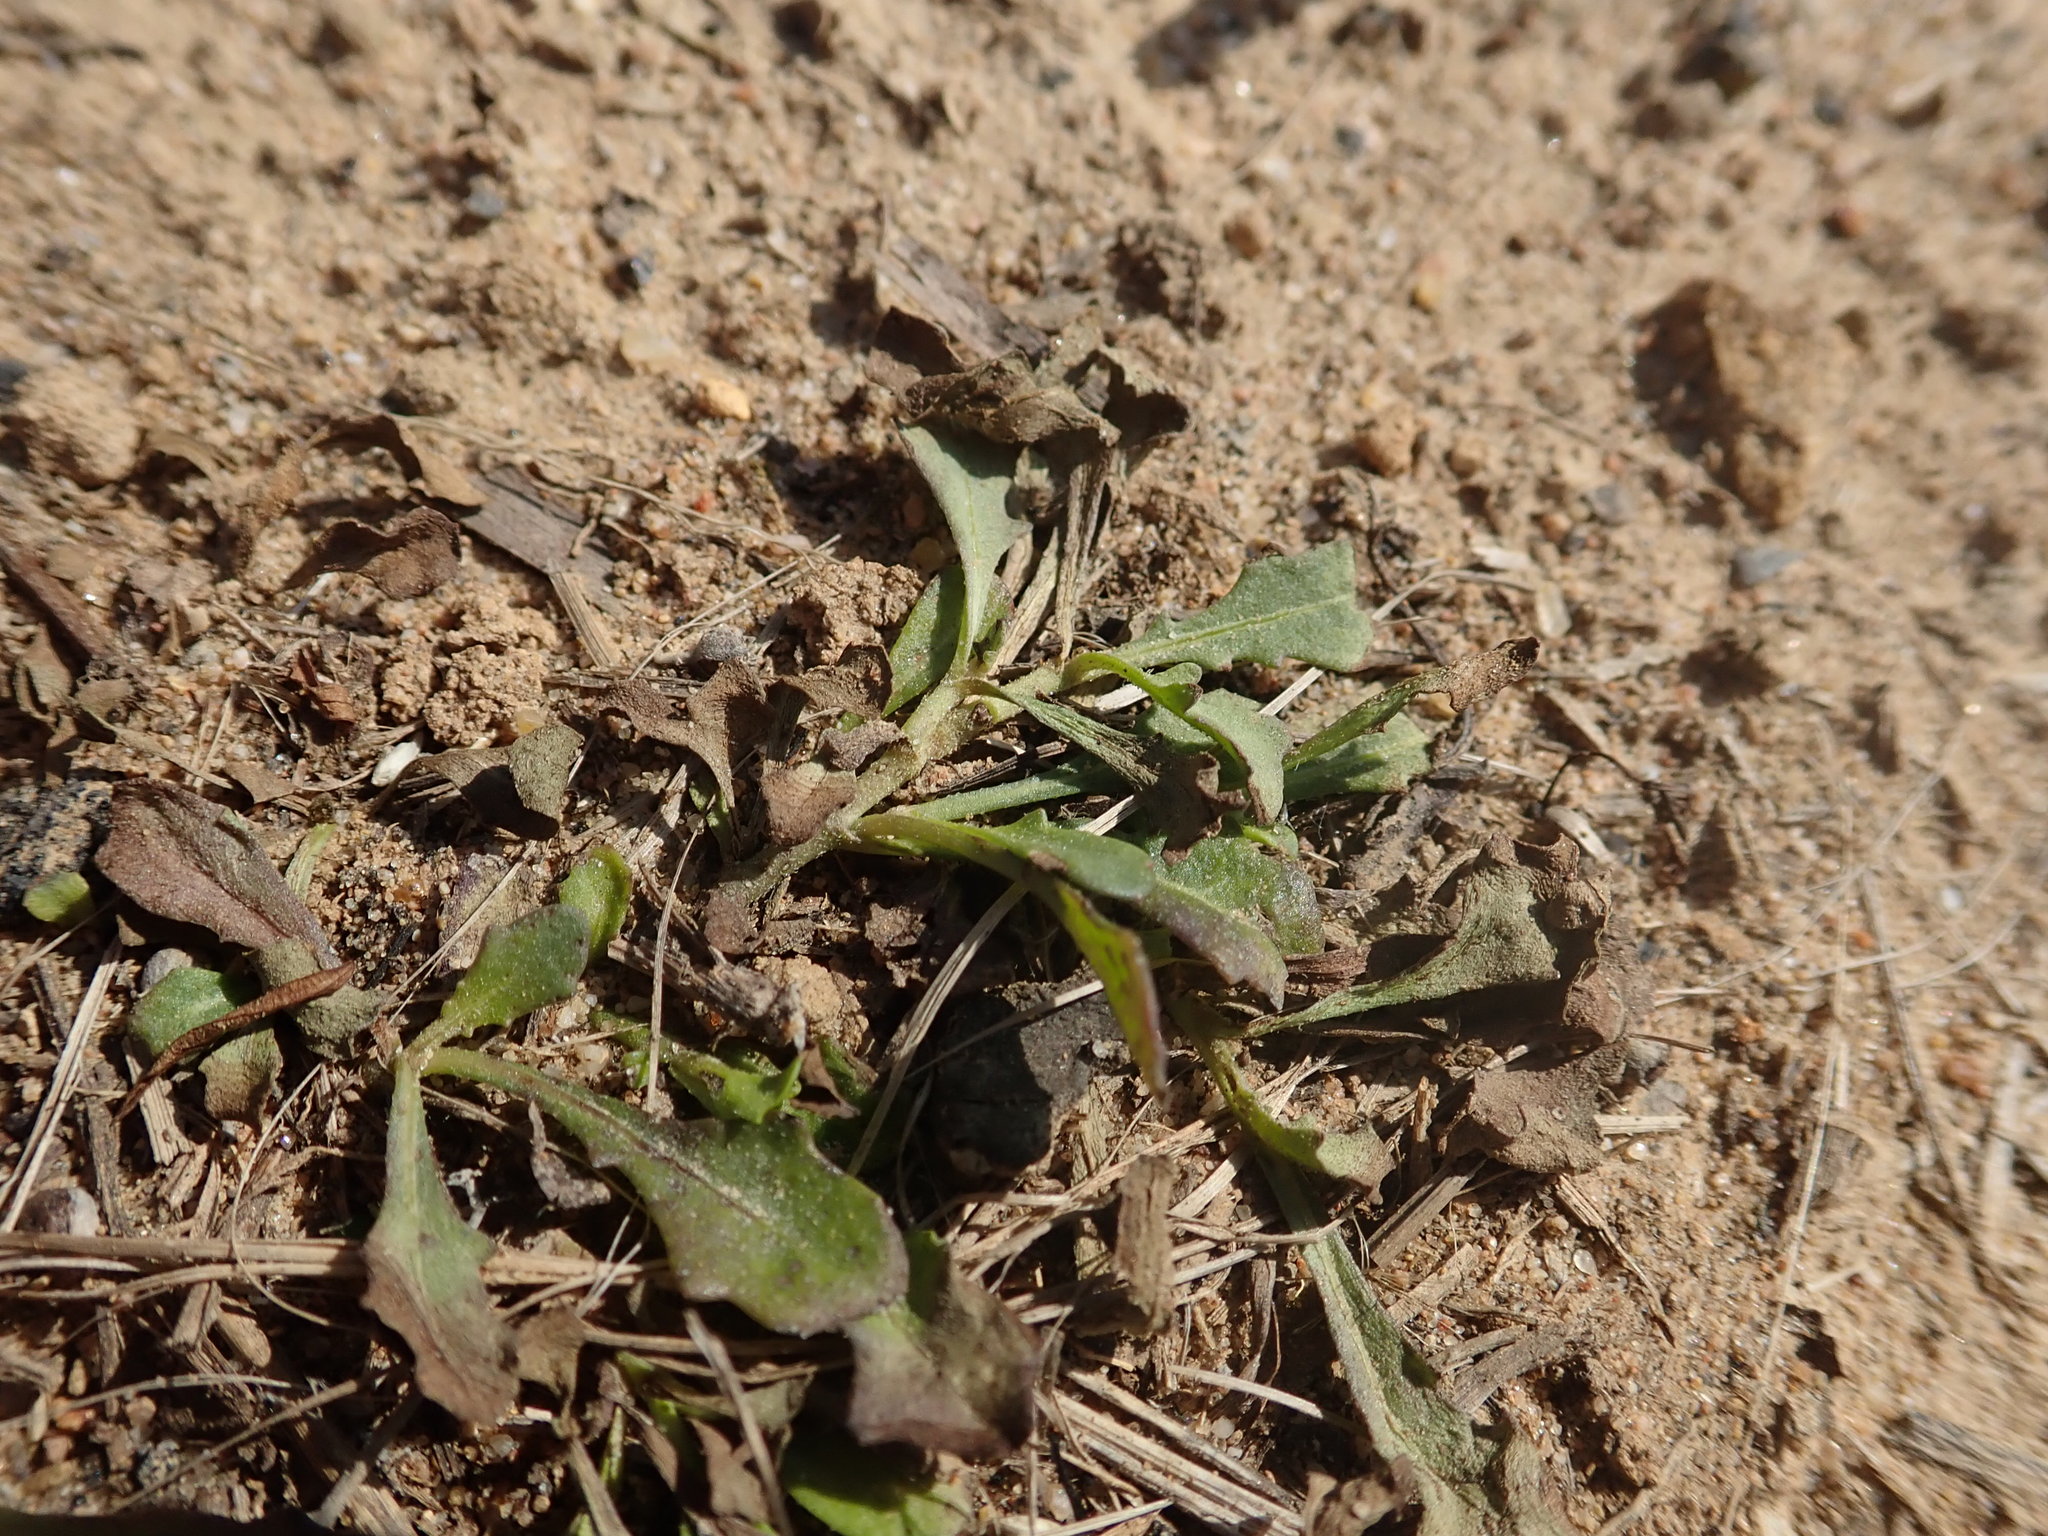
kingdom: Plantae
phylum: Tracheophyta
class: Magnoliopsida
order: Asterales
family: Asteraceae
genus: Sphaeromorphaea
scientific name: Sphaeromorphaea australis
